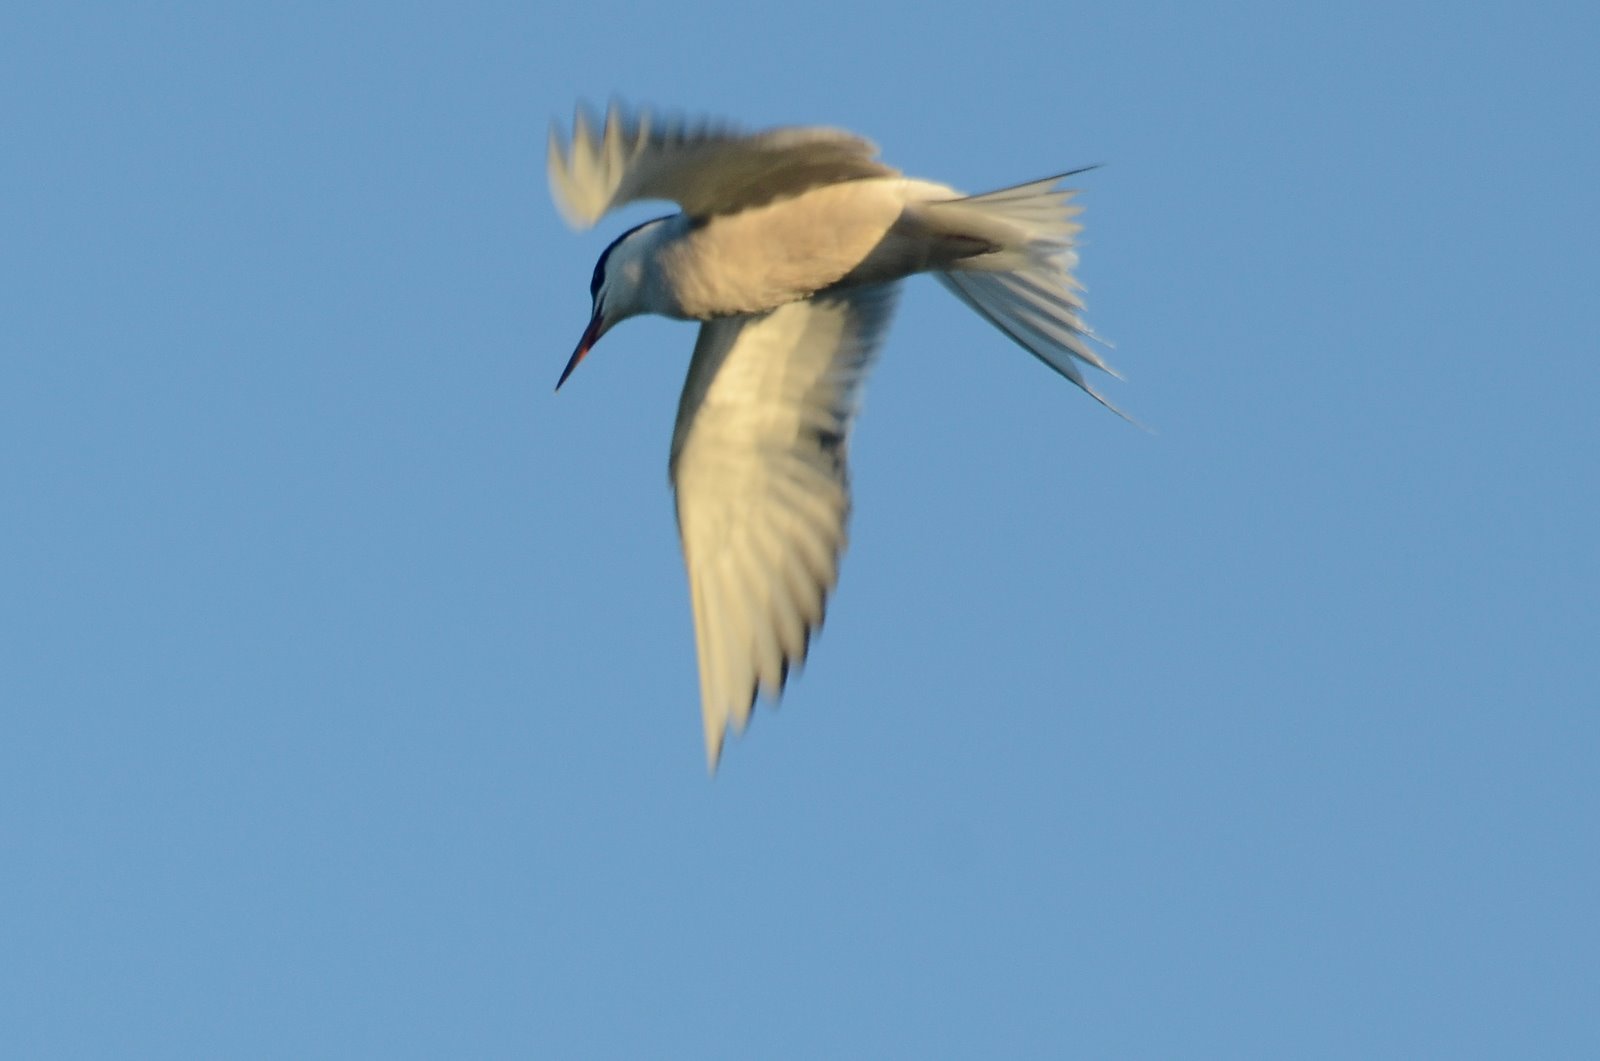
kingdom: Animalia
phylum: Chordata
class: Aves
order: Charadriiformes
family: Laridae
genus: Sterna
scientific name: Sterna hirundo
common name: Common tern
